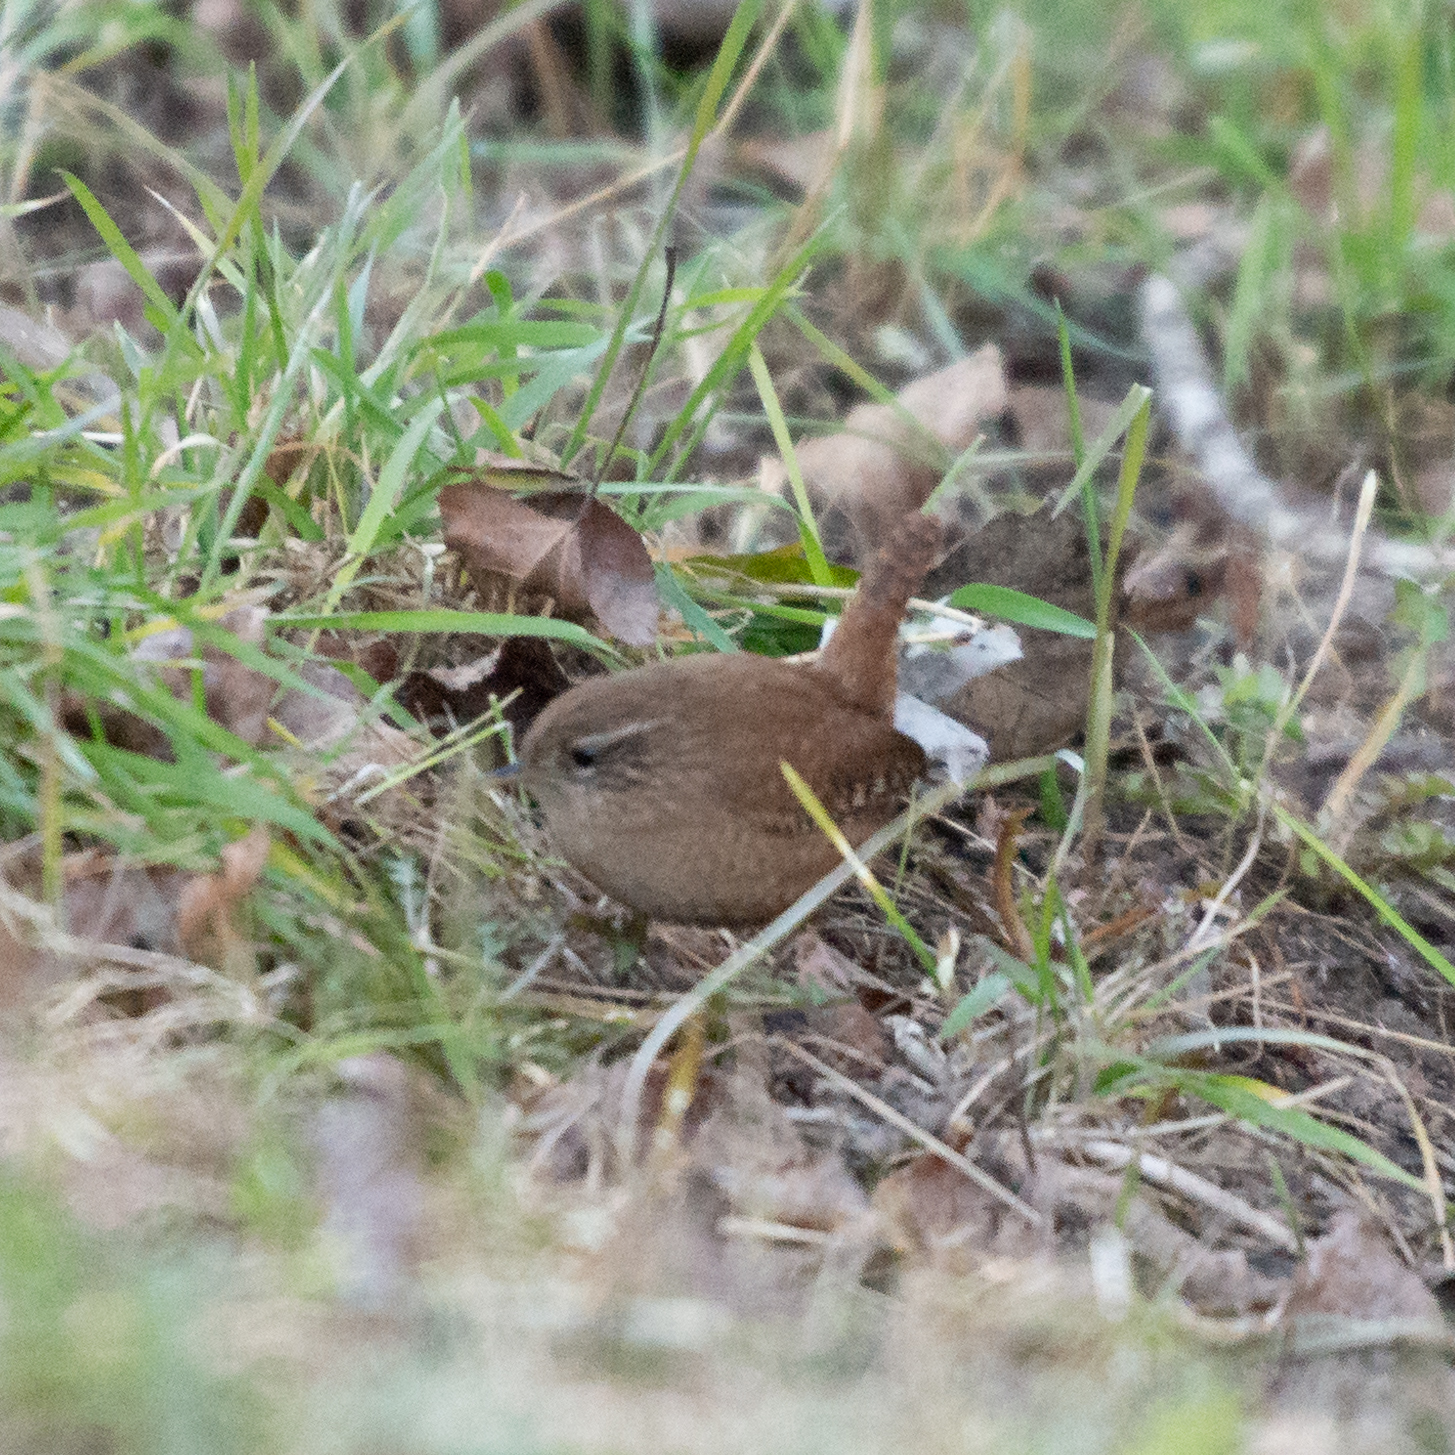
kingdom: Animalia
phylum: Chordata
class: Aves
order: Passeriformes
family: Troglodytidae
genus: Troglodytes
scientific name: Troglodytes troglodytes
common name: Eurasian wren
